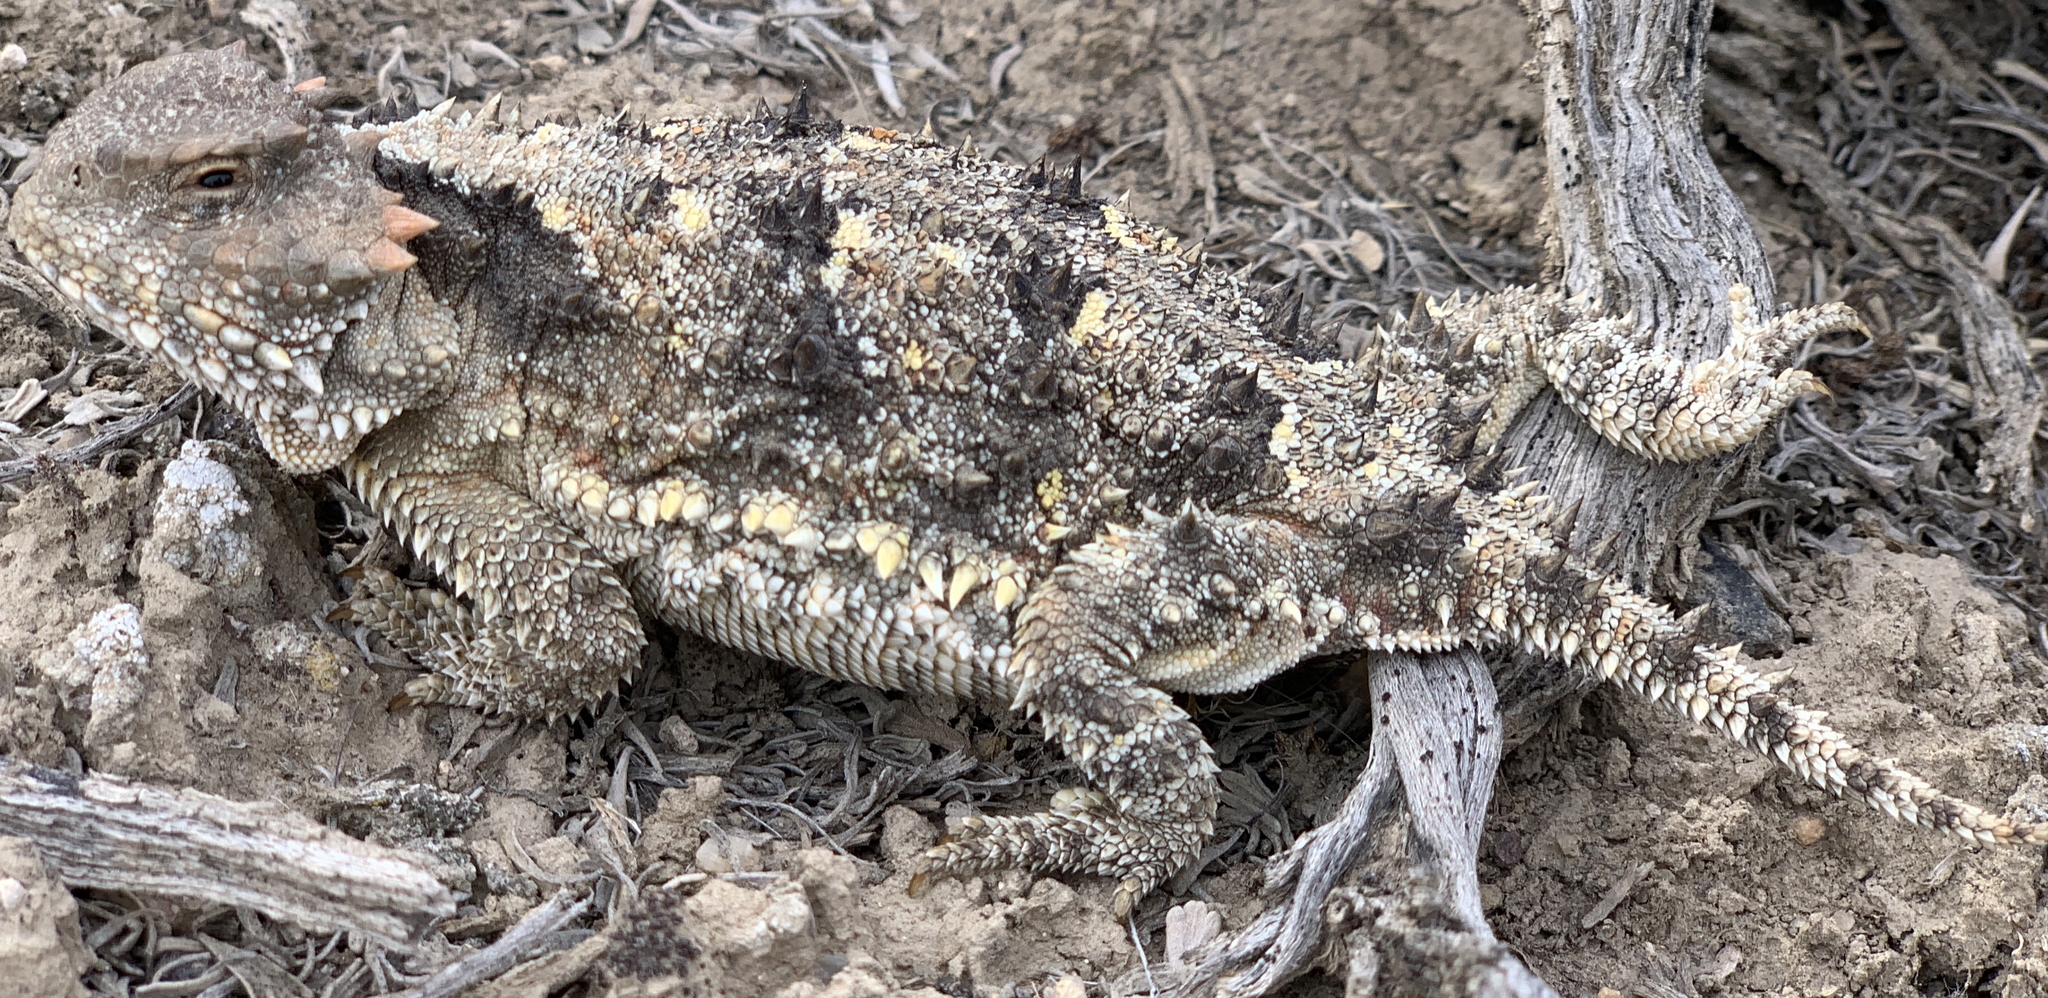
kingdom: Animalia
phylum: Chordata
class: Squamata
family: Phrynosomatidae
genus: Phrynosoma
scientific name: Phrynosoma hernandesi
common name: Greater short-horned lizard
